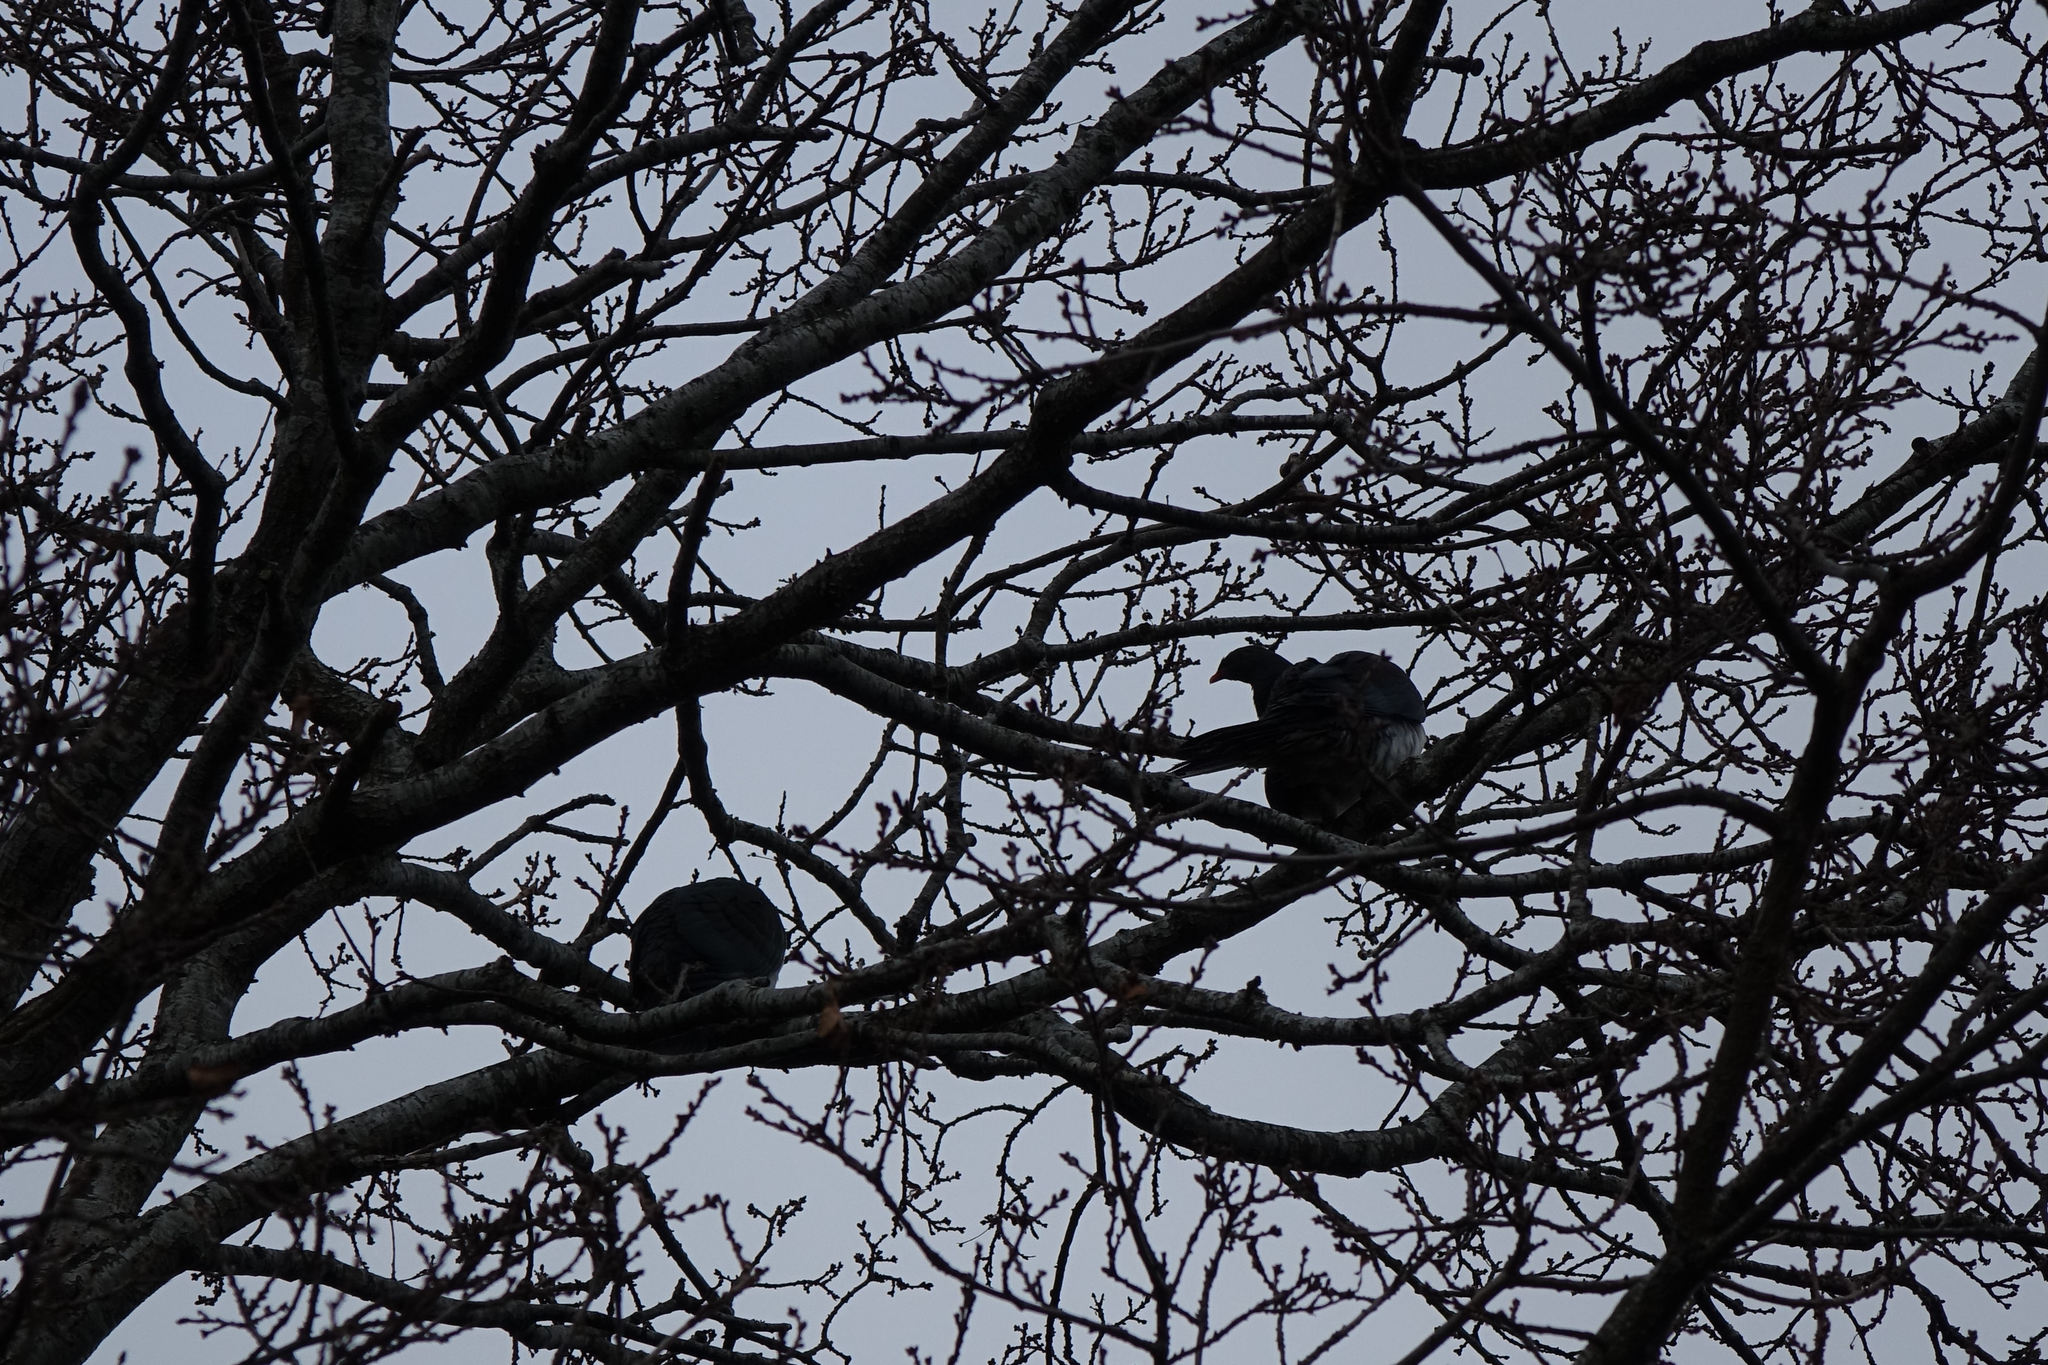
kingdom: Animalia
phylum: Chordata
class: Aves
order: Columbiformes
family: Columbidae
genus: Hemiphaga
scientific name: Hemiphaga novaeseelandiae
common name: New zealand pigeon
